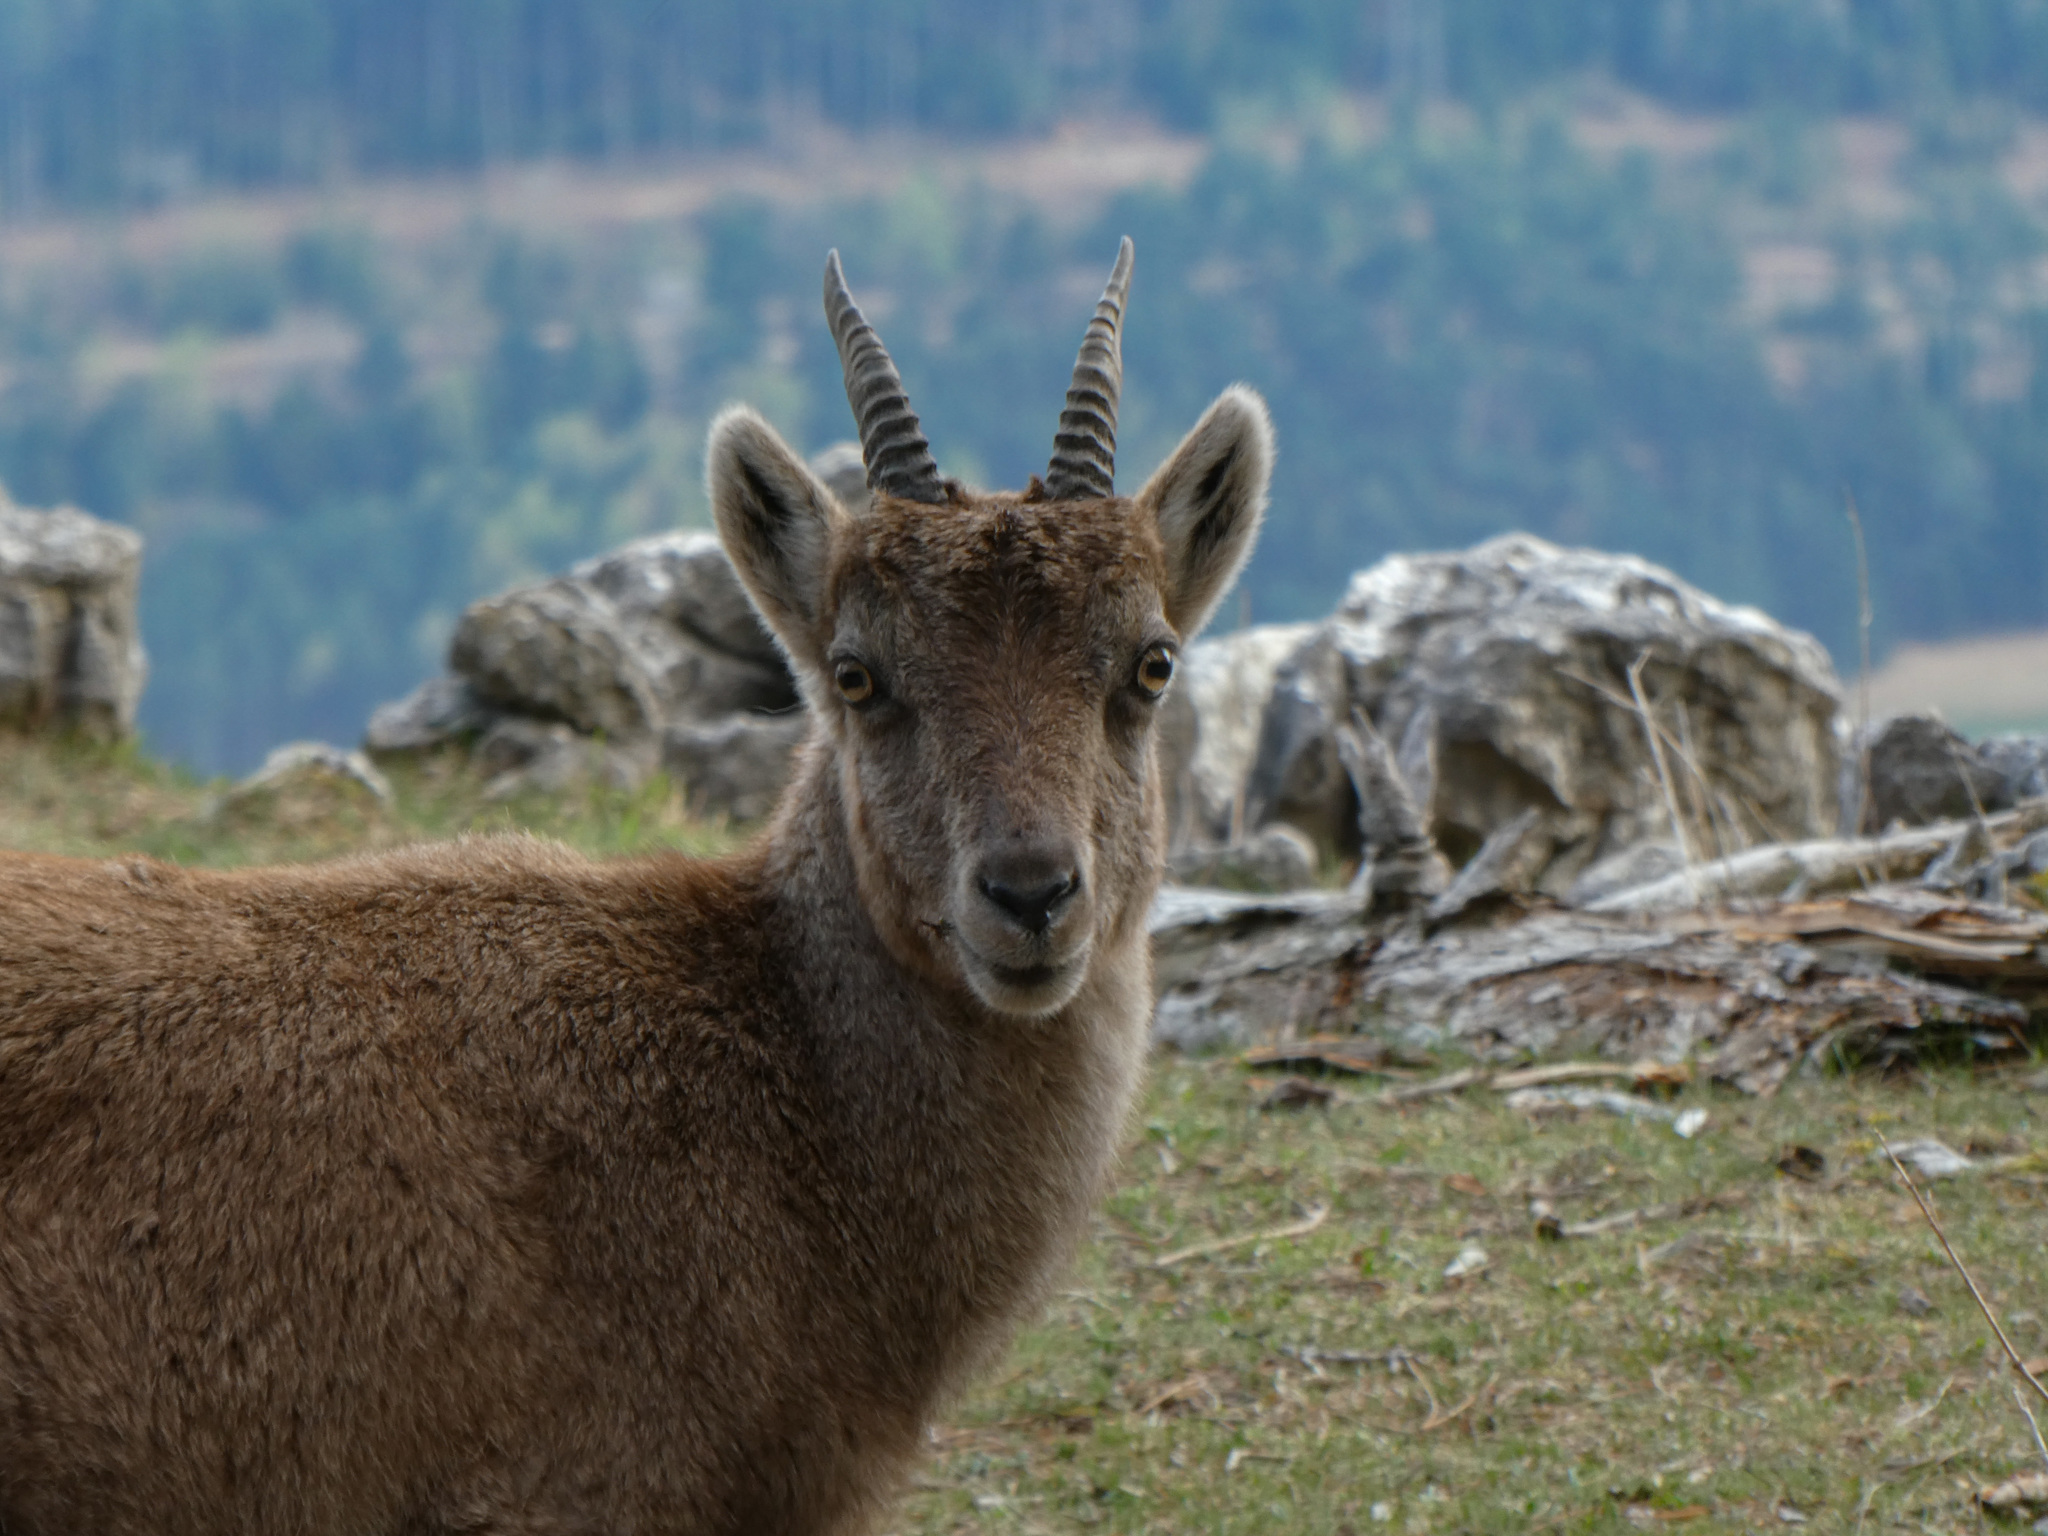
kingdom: Animalia
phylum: Chordata
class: Mammalia
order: Artiodactyla
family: Bovidae
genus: Capra
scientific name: Capra ibex
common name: Alpine ibex
